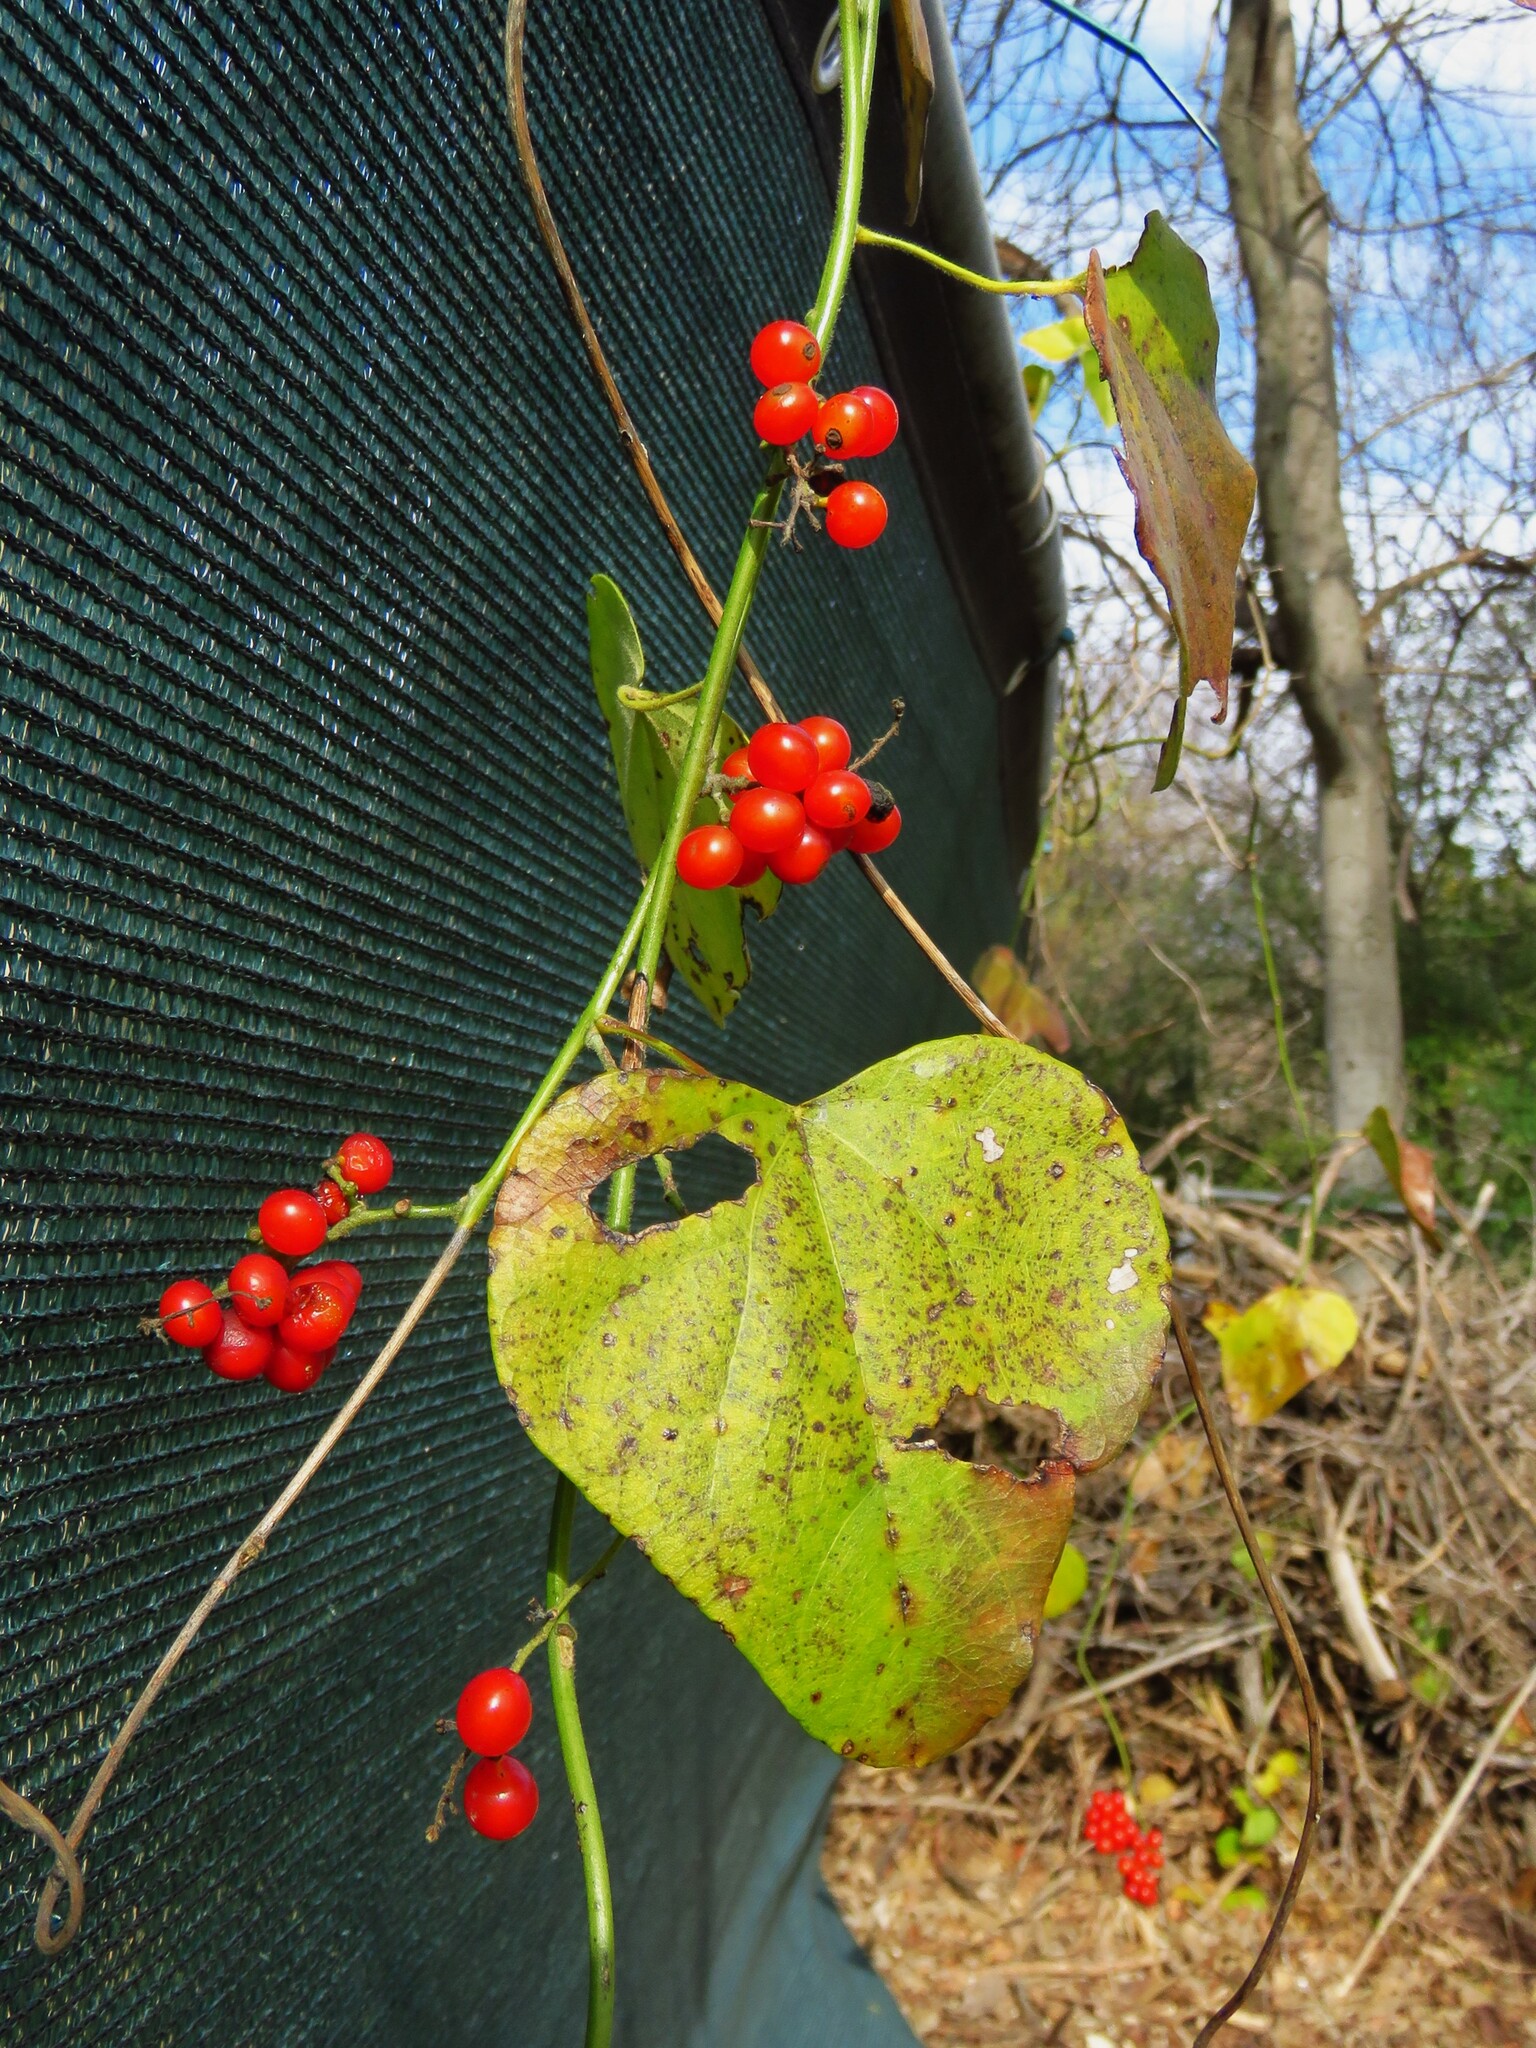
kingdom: Plantae
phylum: Tracheophyta
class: Magnoliopsida
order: Ranunculales
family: Menispermaceae
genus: Cocculus
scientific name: Cocculus carolinus
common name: Carolina moonseed
